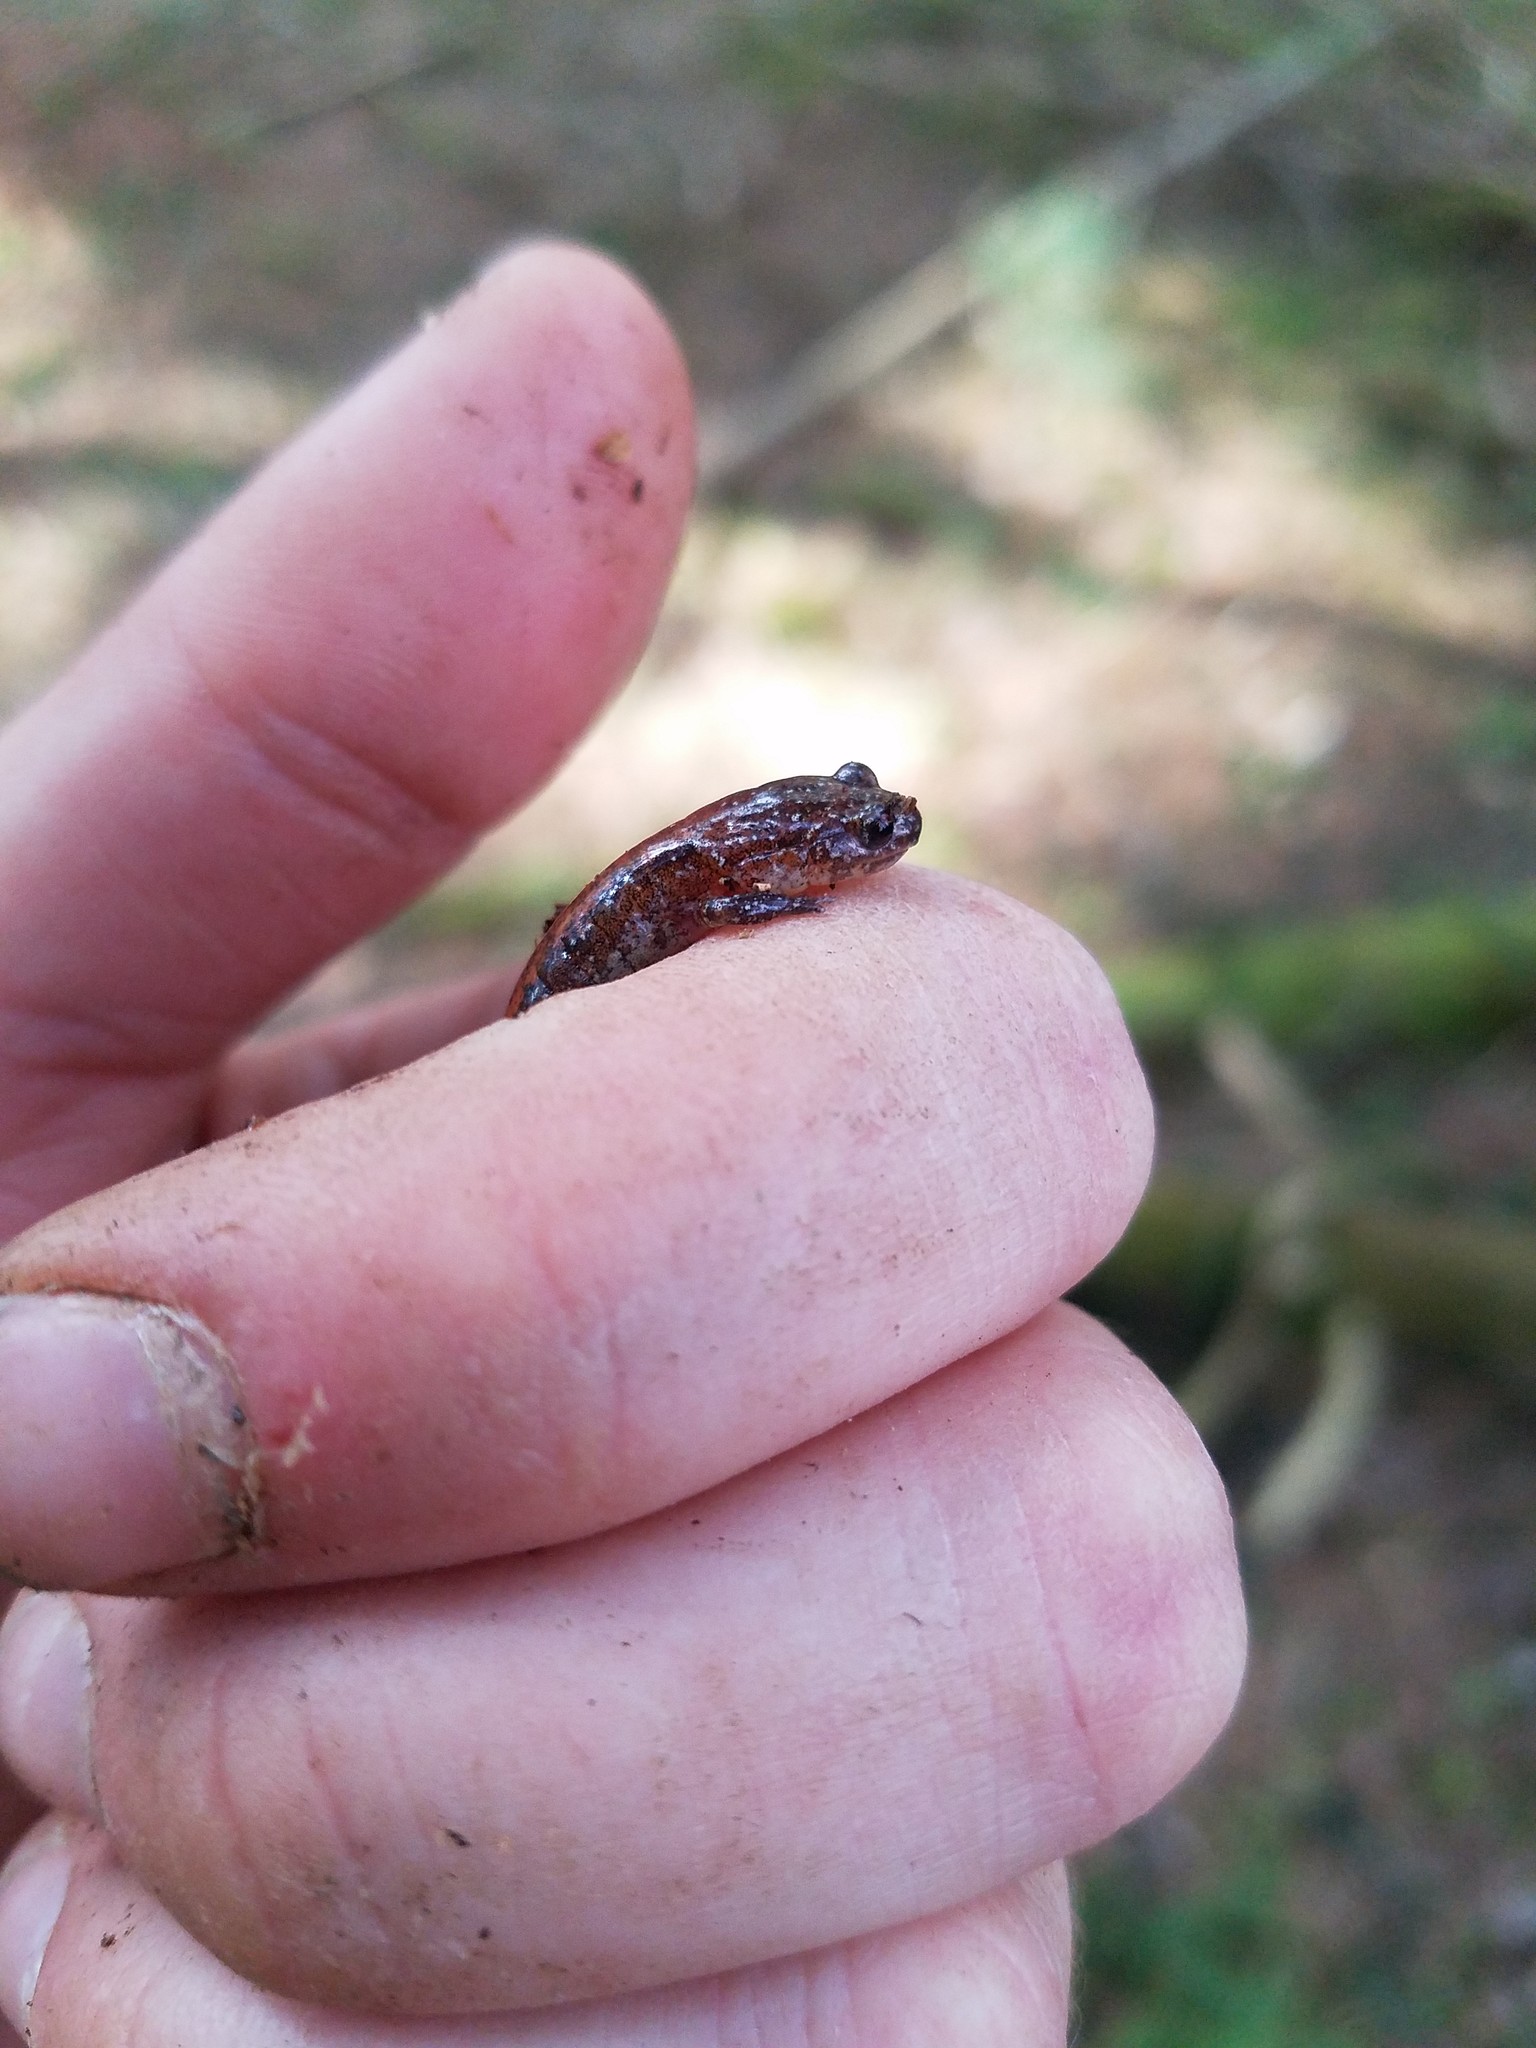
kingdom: Animalia
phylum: Chordata
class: Amphibia
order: Caudata
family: Plethodontidae
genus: Plethodon
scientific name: Plethodon cinereus
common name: Redback salamander
